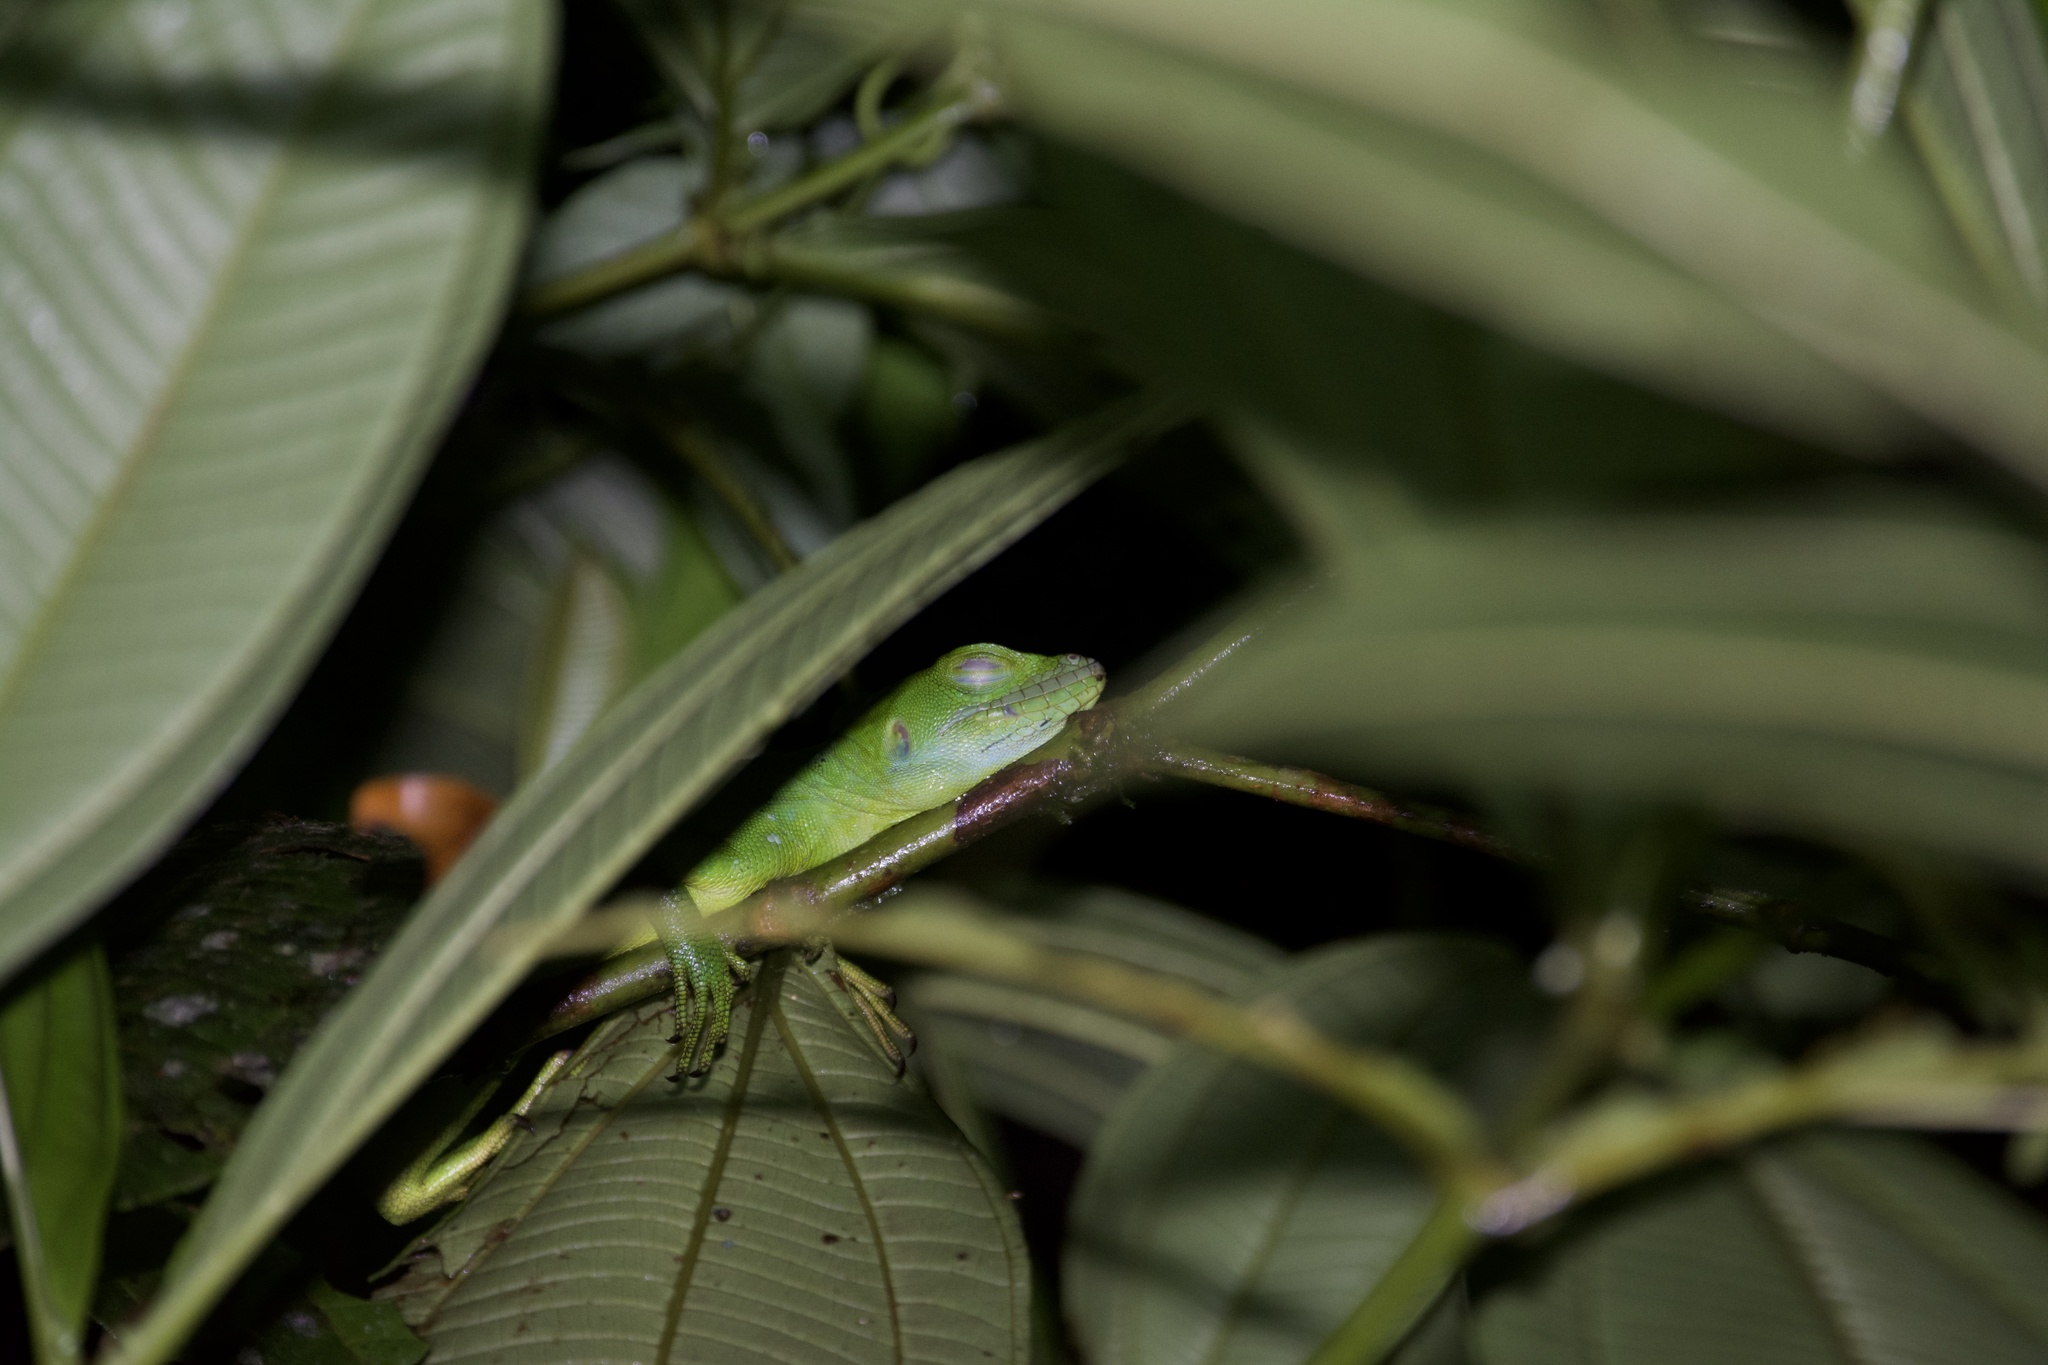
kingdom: Animalia
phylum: Chordata
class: Squamata
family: Corytophanidae
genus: Basiliscus
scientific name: Basiliscus plumifrons
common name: Green basilisk
